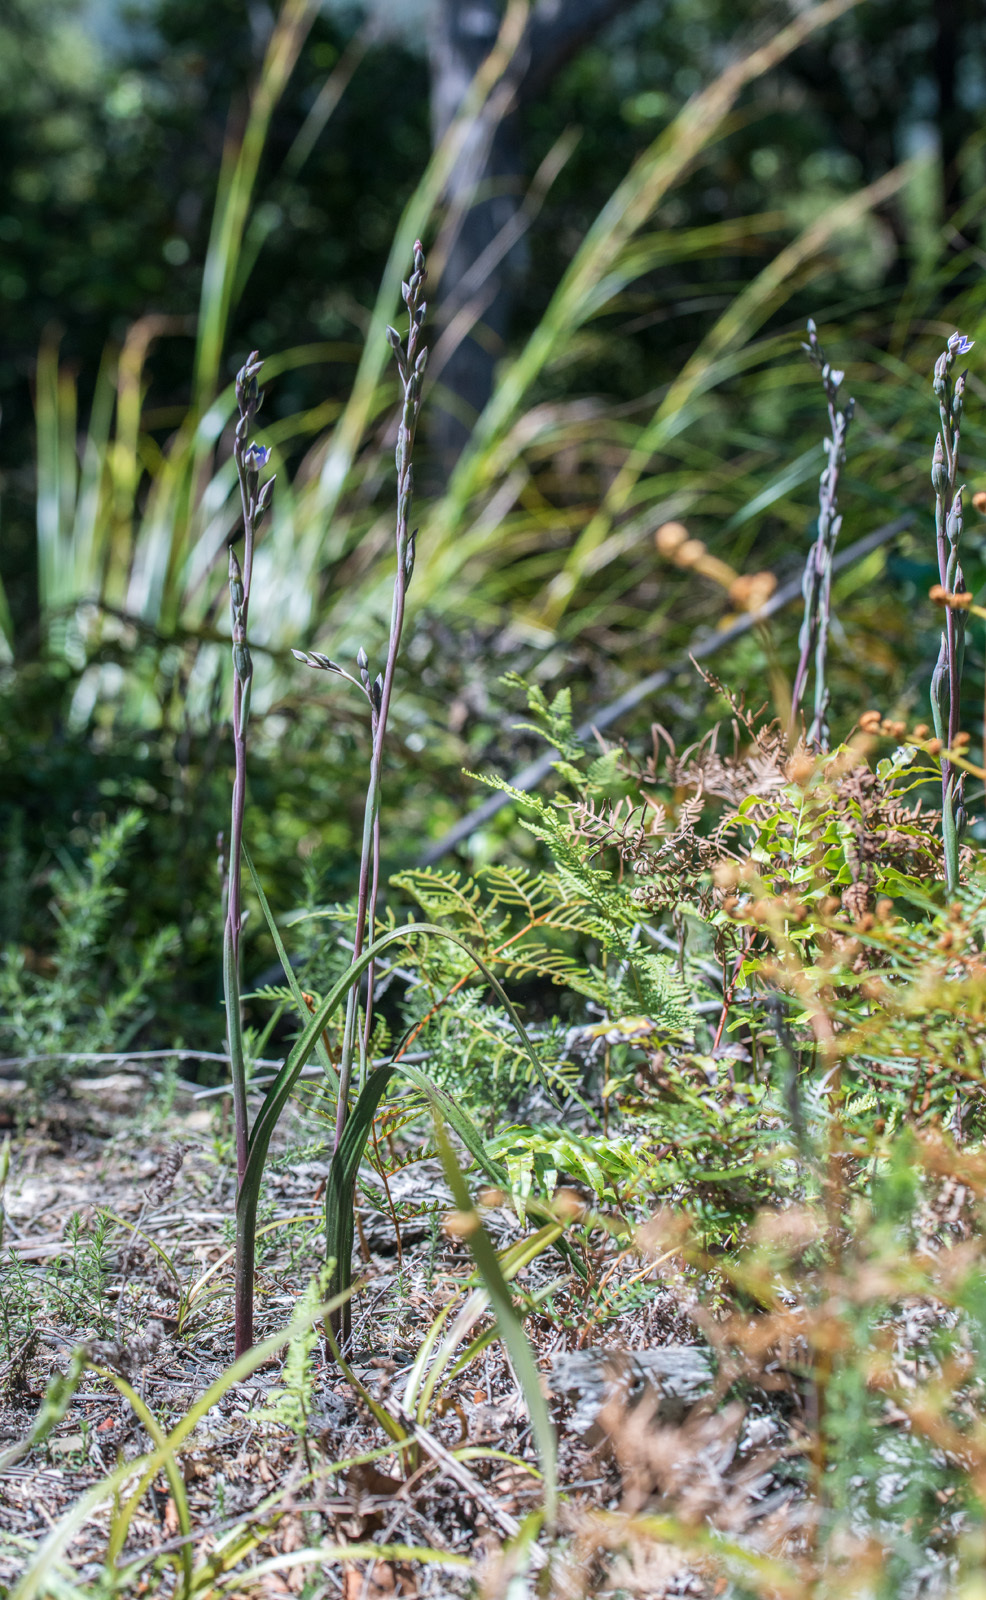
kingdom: Plantae
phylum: Tracheophyta
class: Liliopsida
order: Asparagales
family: Orchidaceae
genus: Thelymitra
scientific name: Thelymitra hatchii
